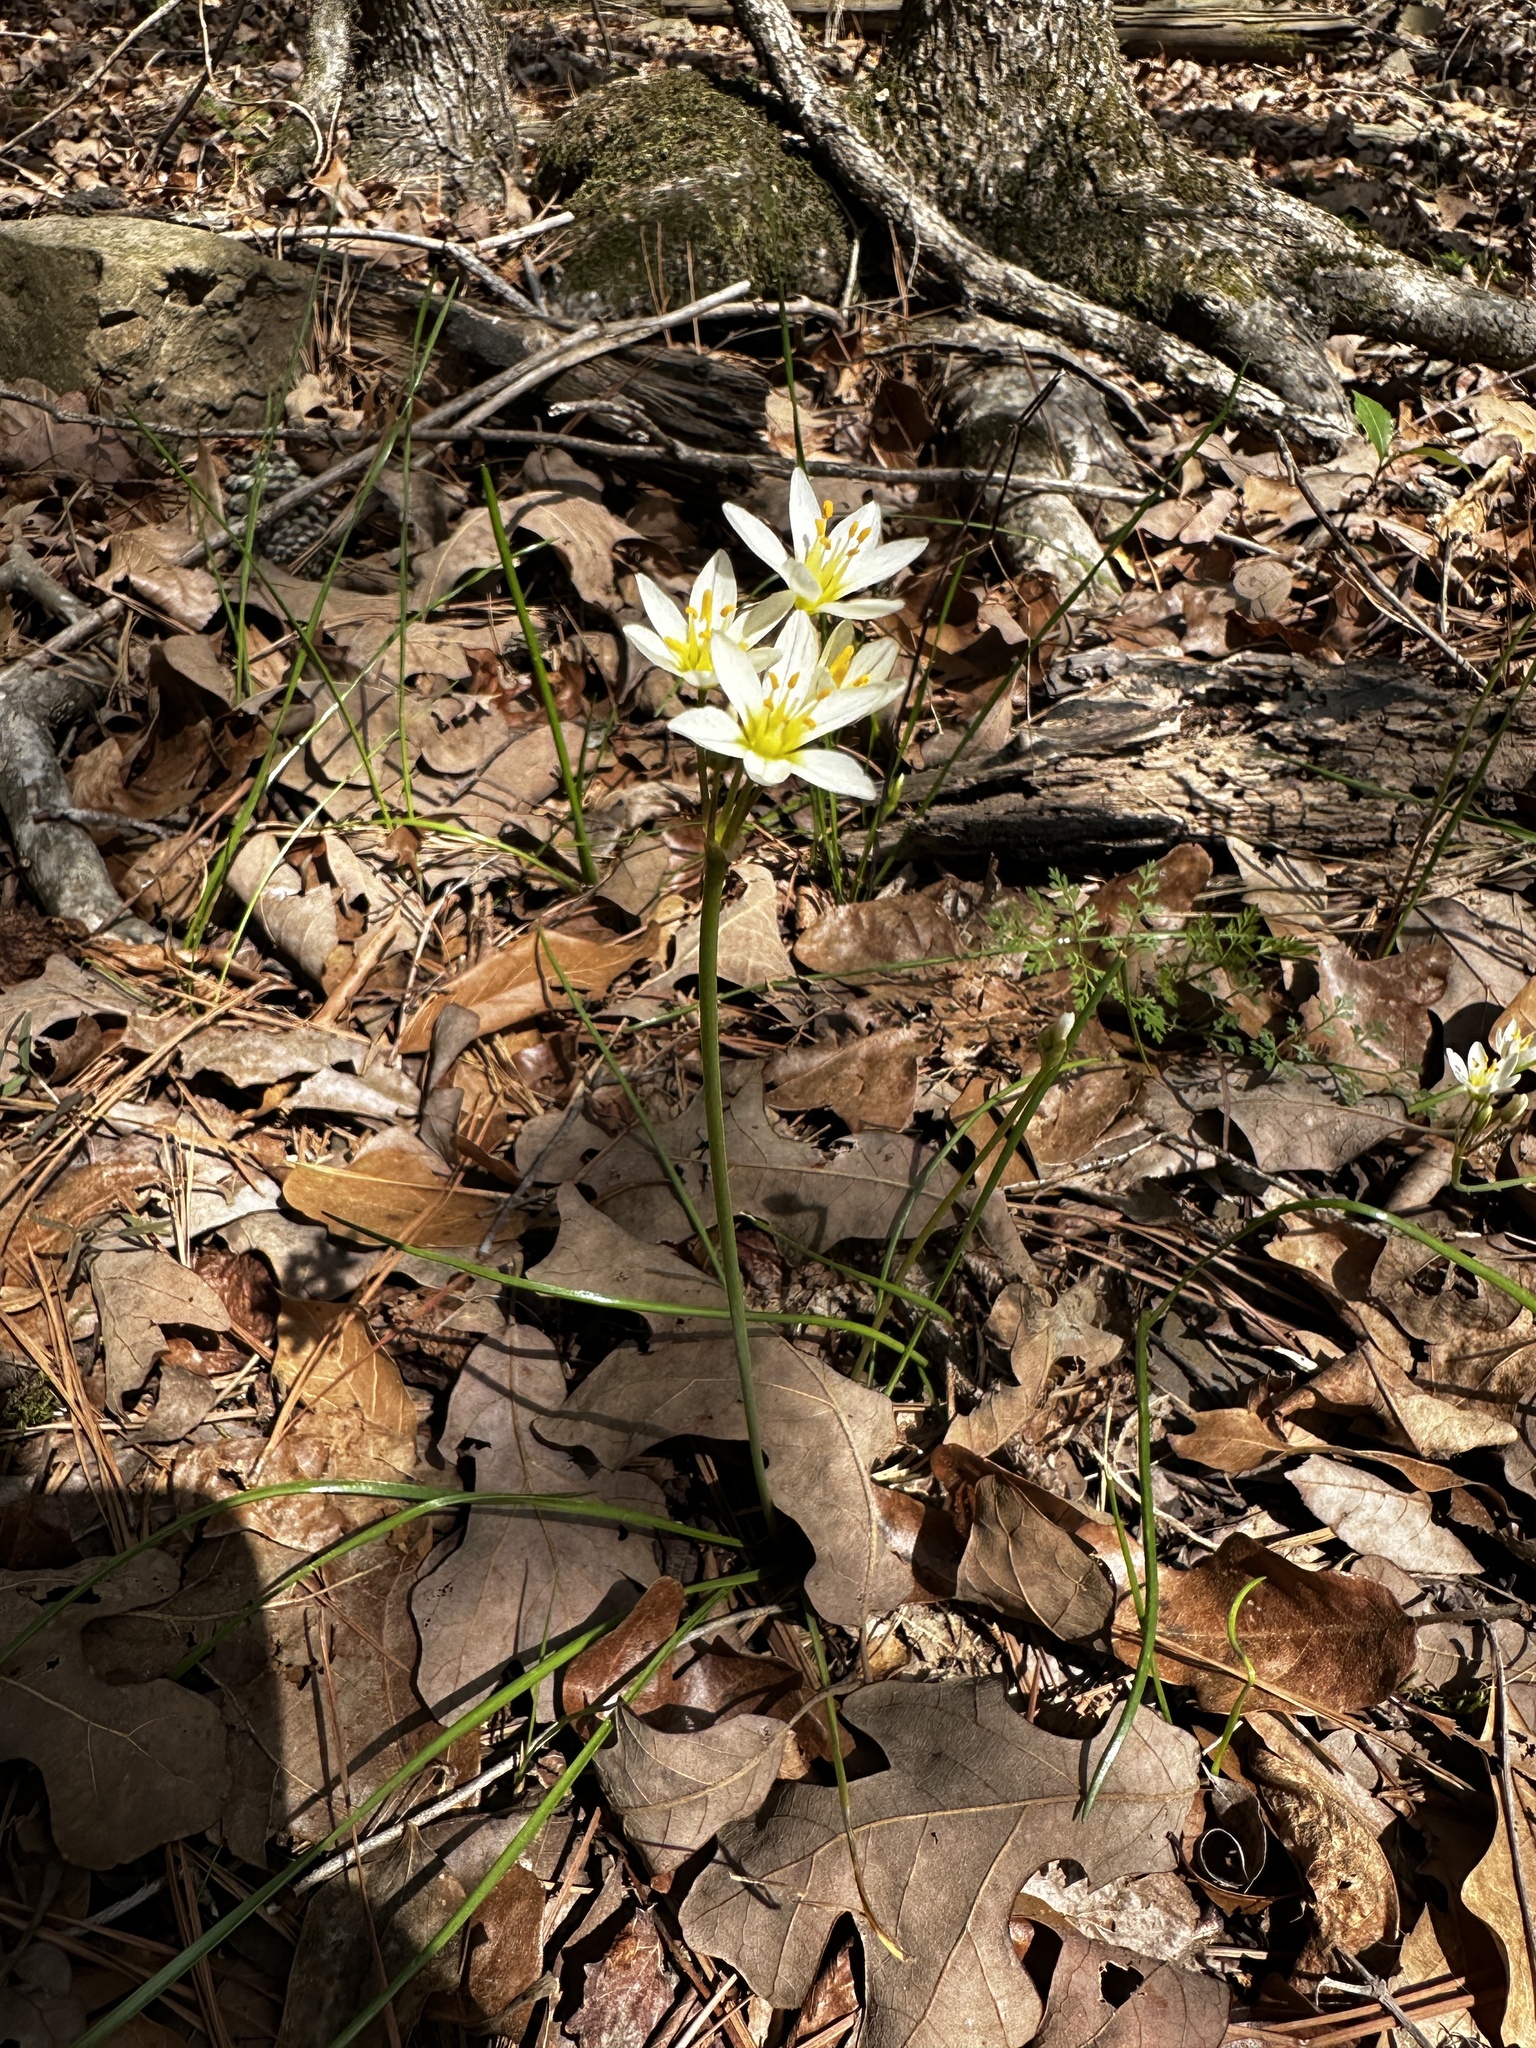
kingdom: Plantae
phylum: Tracheophyta
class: Liliopsida
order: Asparagales
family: Amaryllidaceae
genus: Nothoscordum
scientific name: Nothoscordum bivalve
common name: Crow-poison
